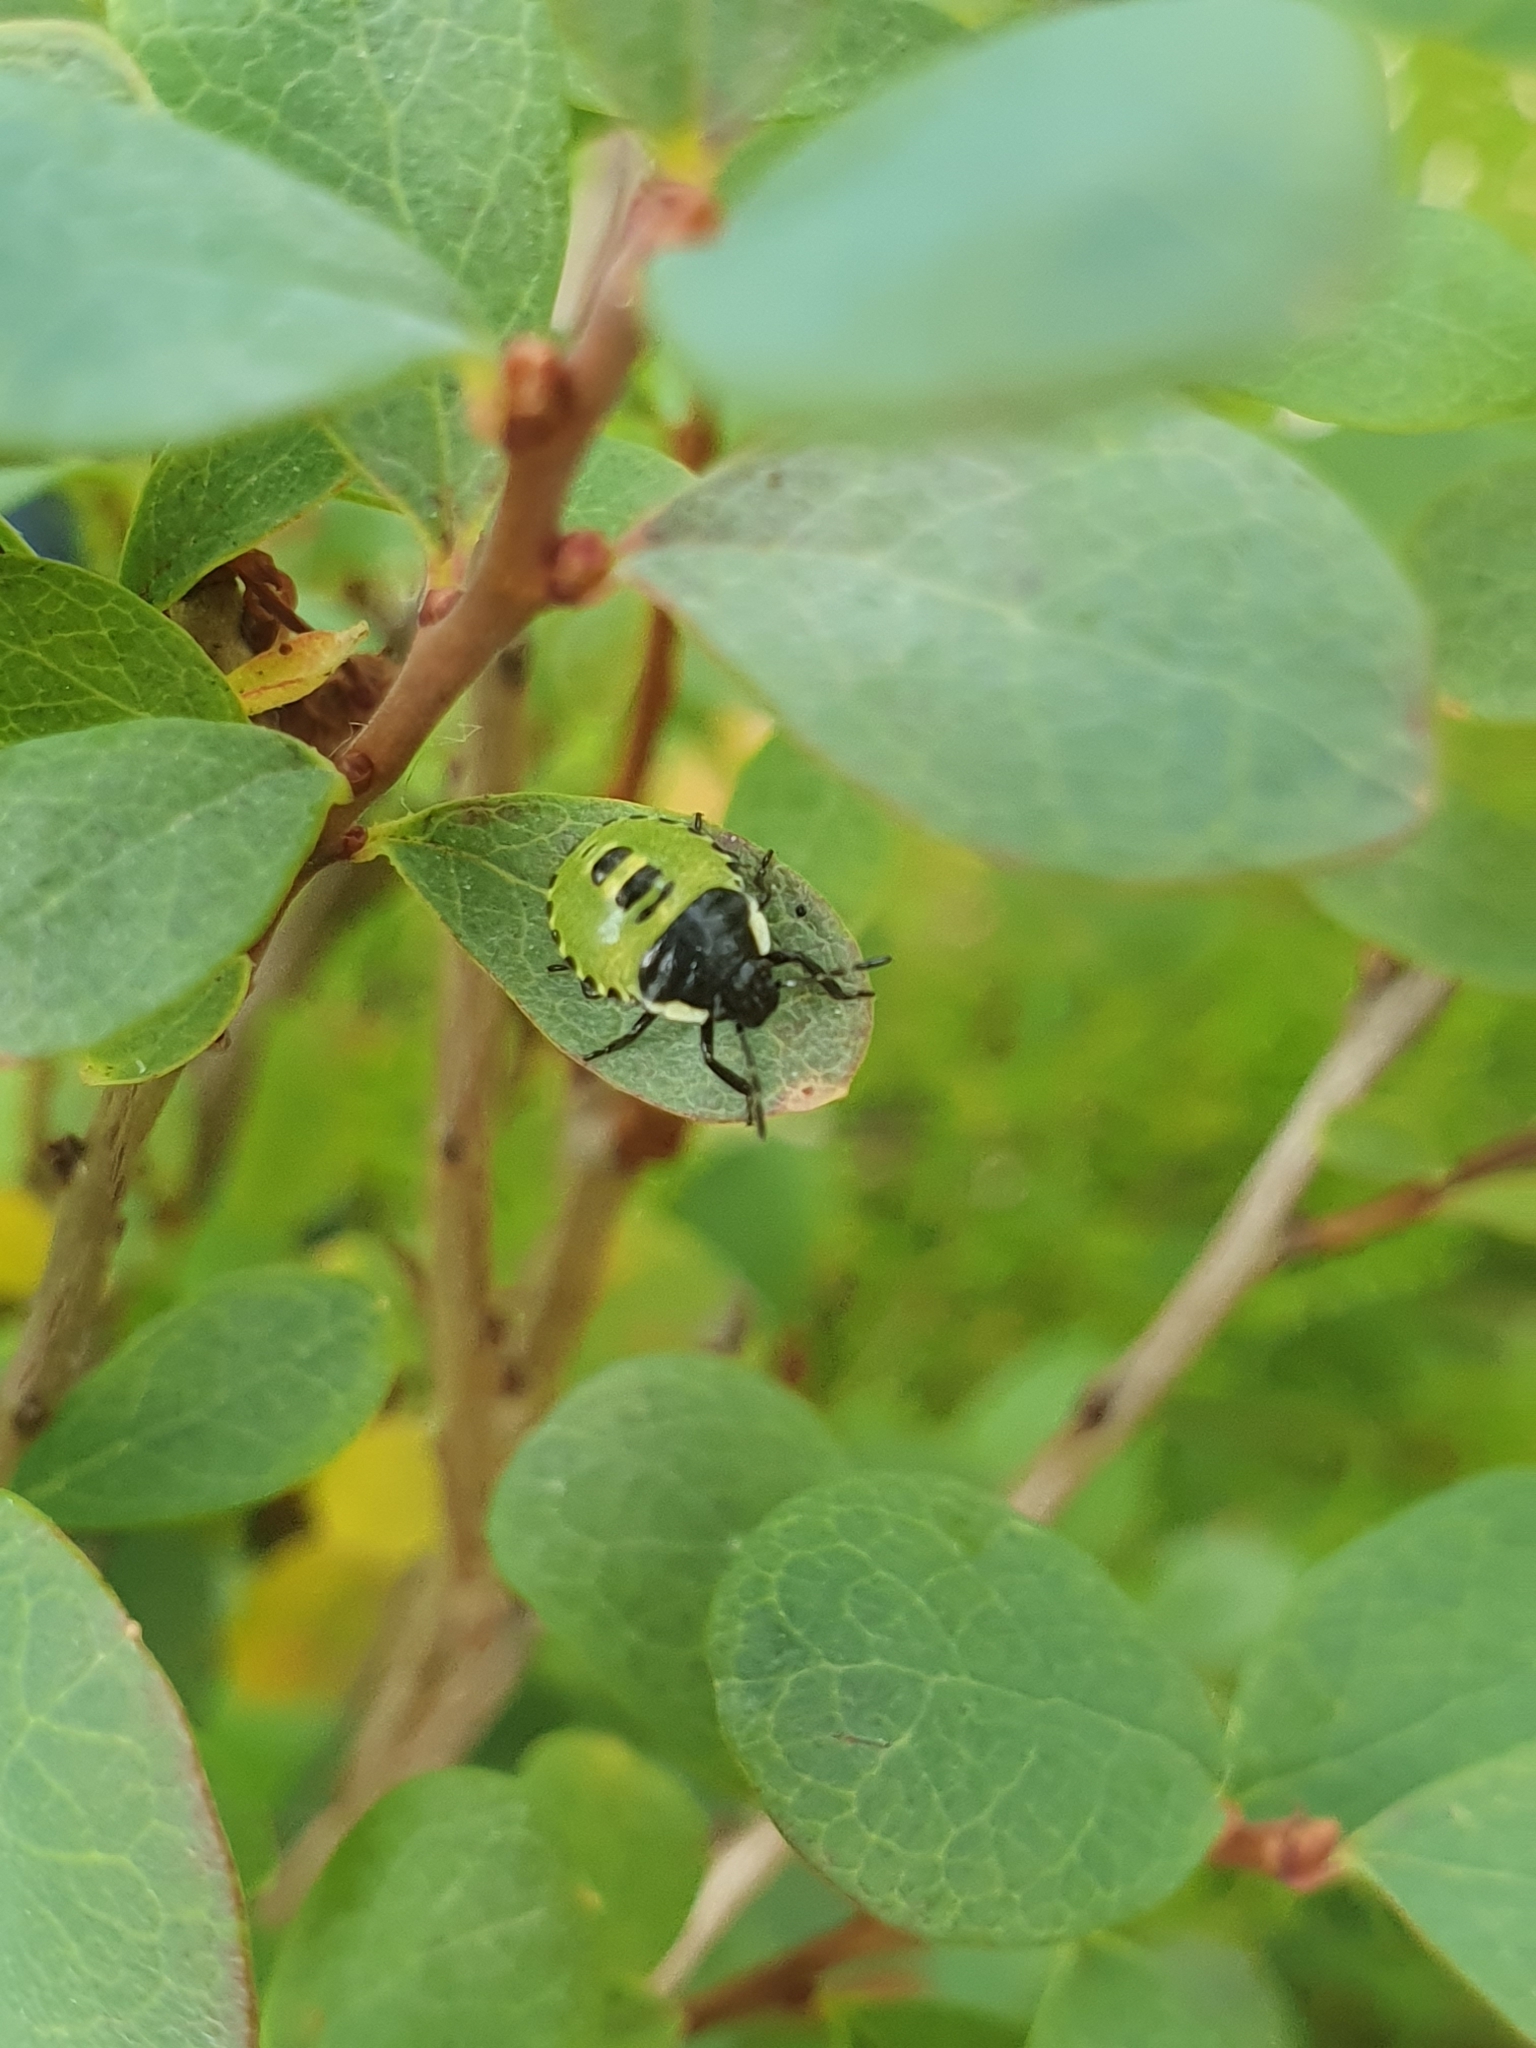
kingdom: Animalia
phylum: Arthropoda
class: Insecta
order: Hemiptera
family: Pentatomidae
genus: Palomena
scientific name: Palomena prasina
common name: Green shieldbug
